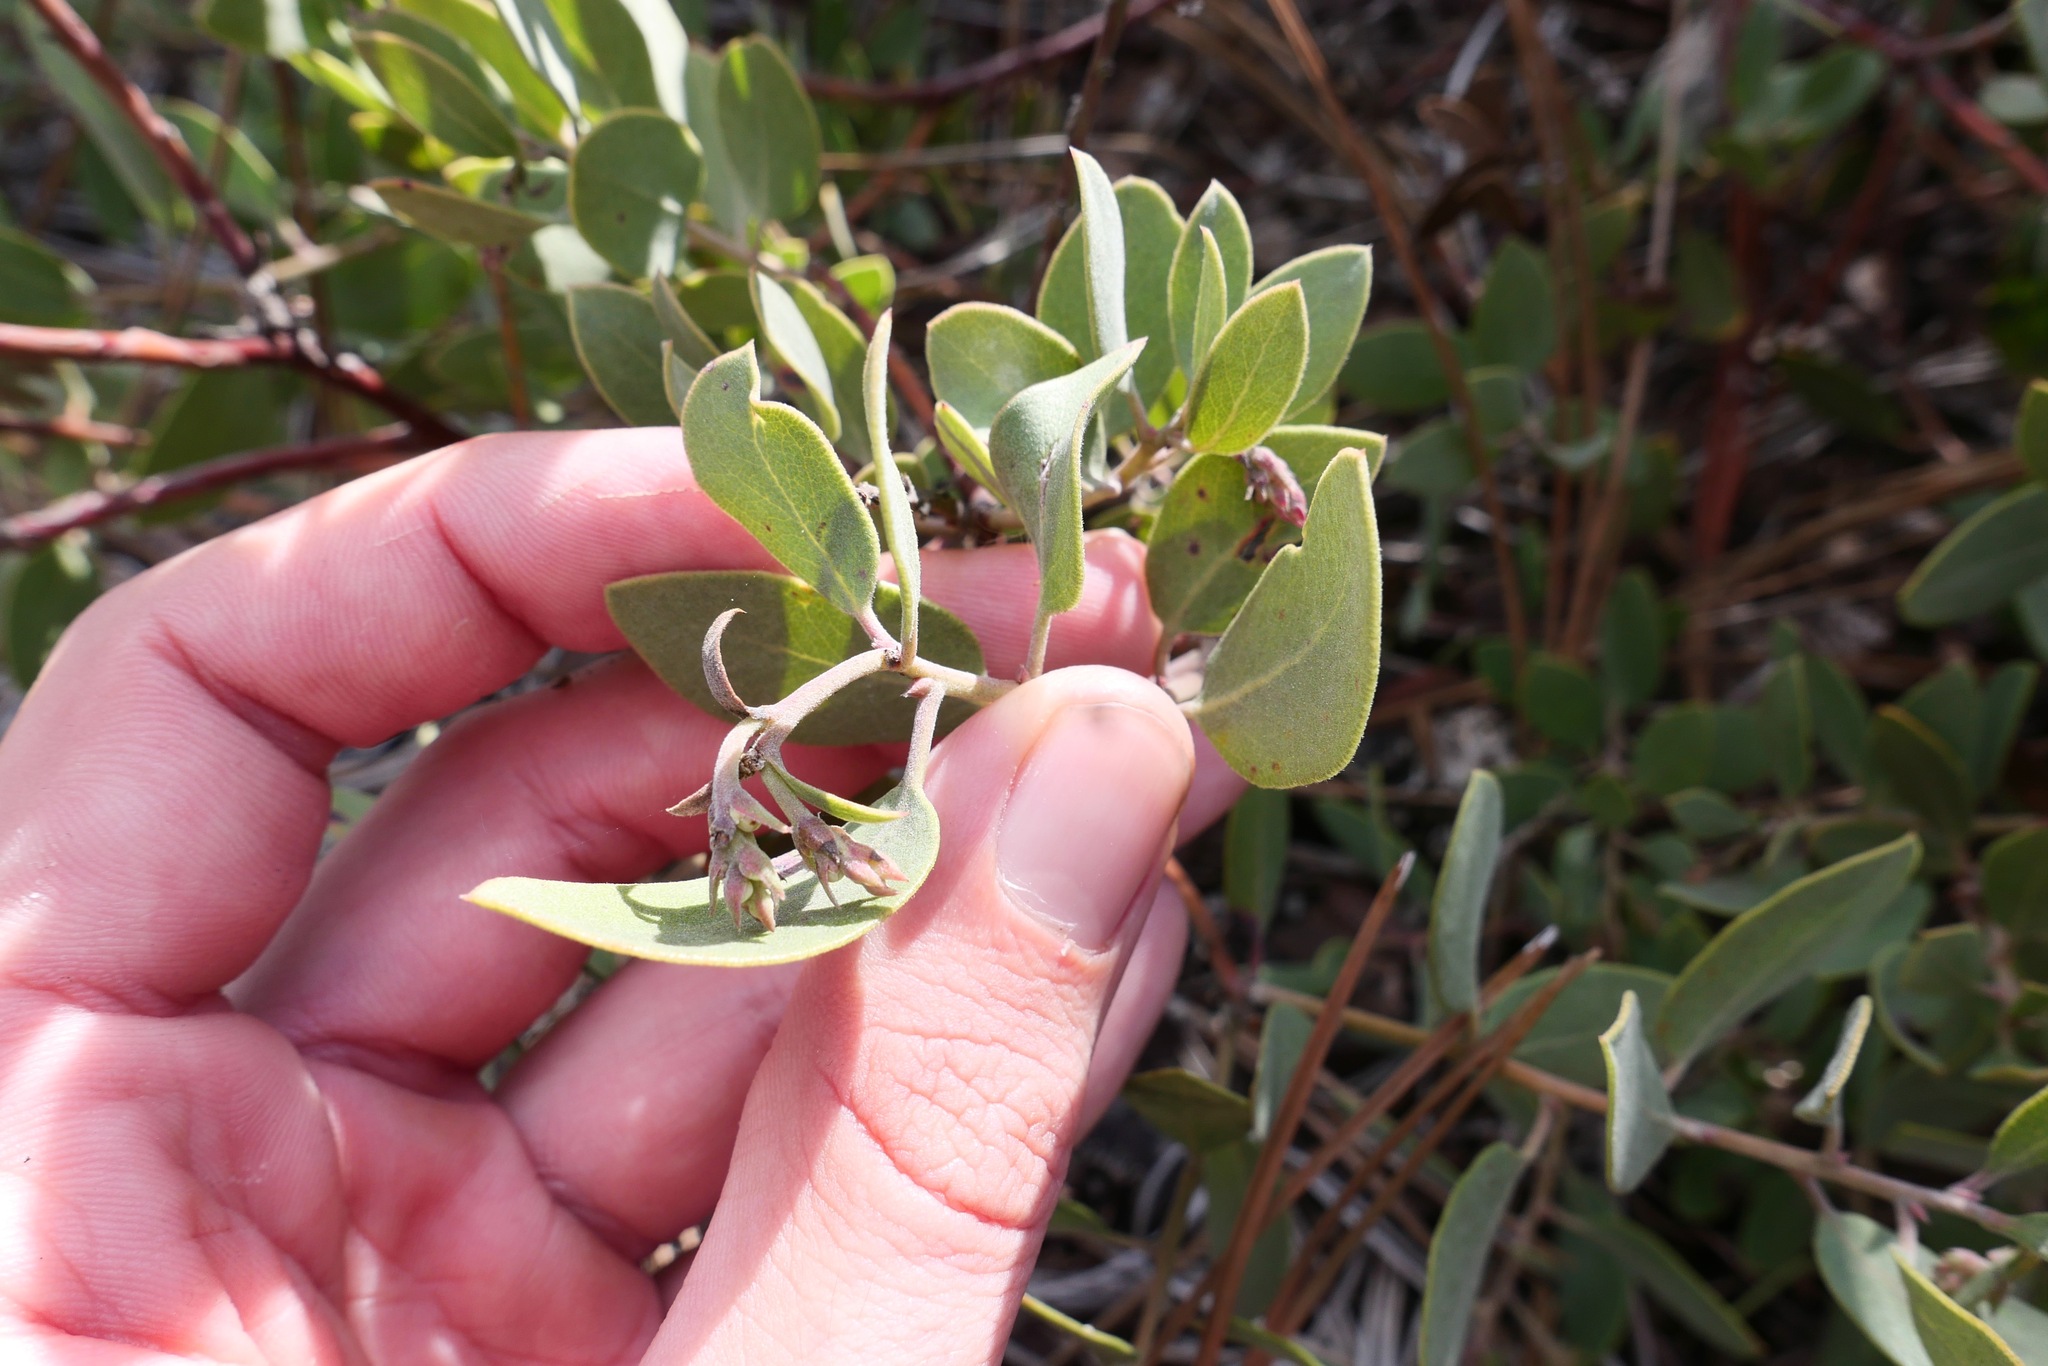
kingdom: Plantae
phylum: Tracheophyta
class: Magnoliopsida
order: Ericales
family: Ericaceae
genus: Arctostaphylos
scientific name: Arctostaphylos glandulosa
